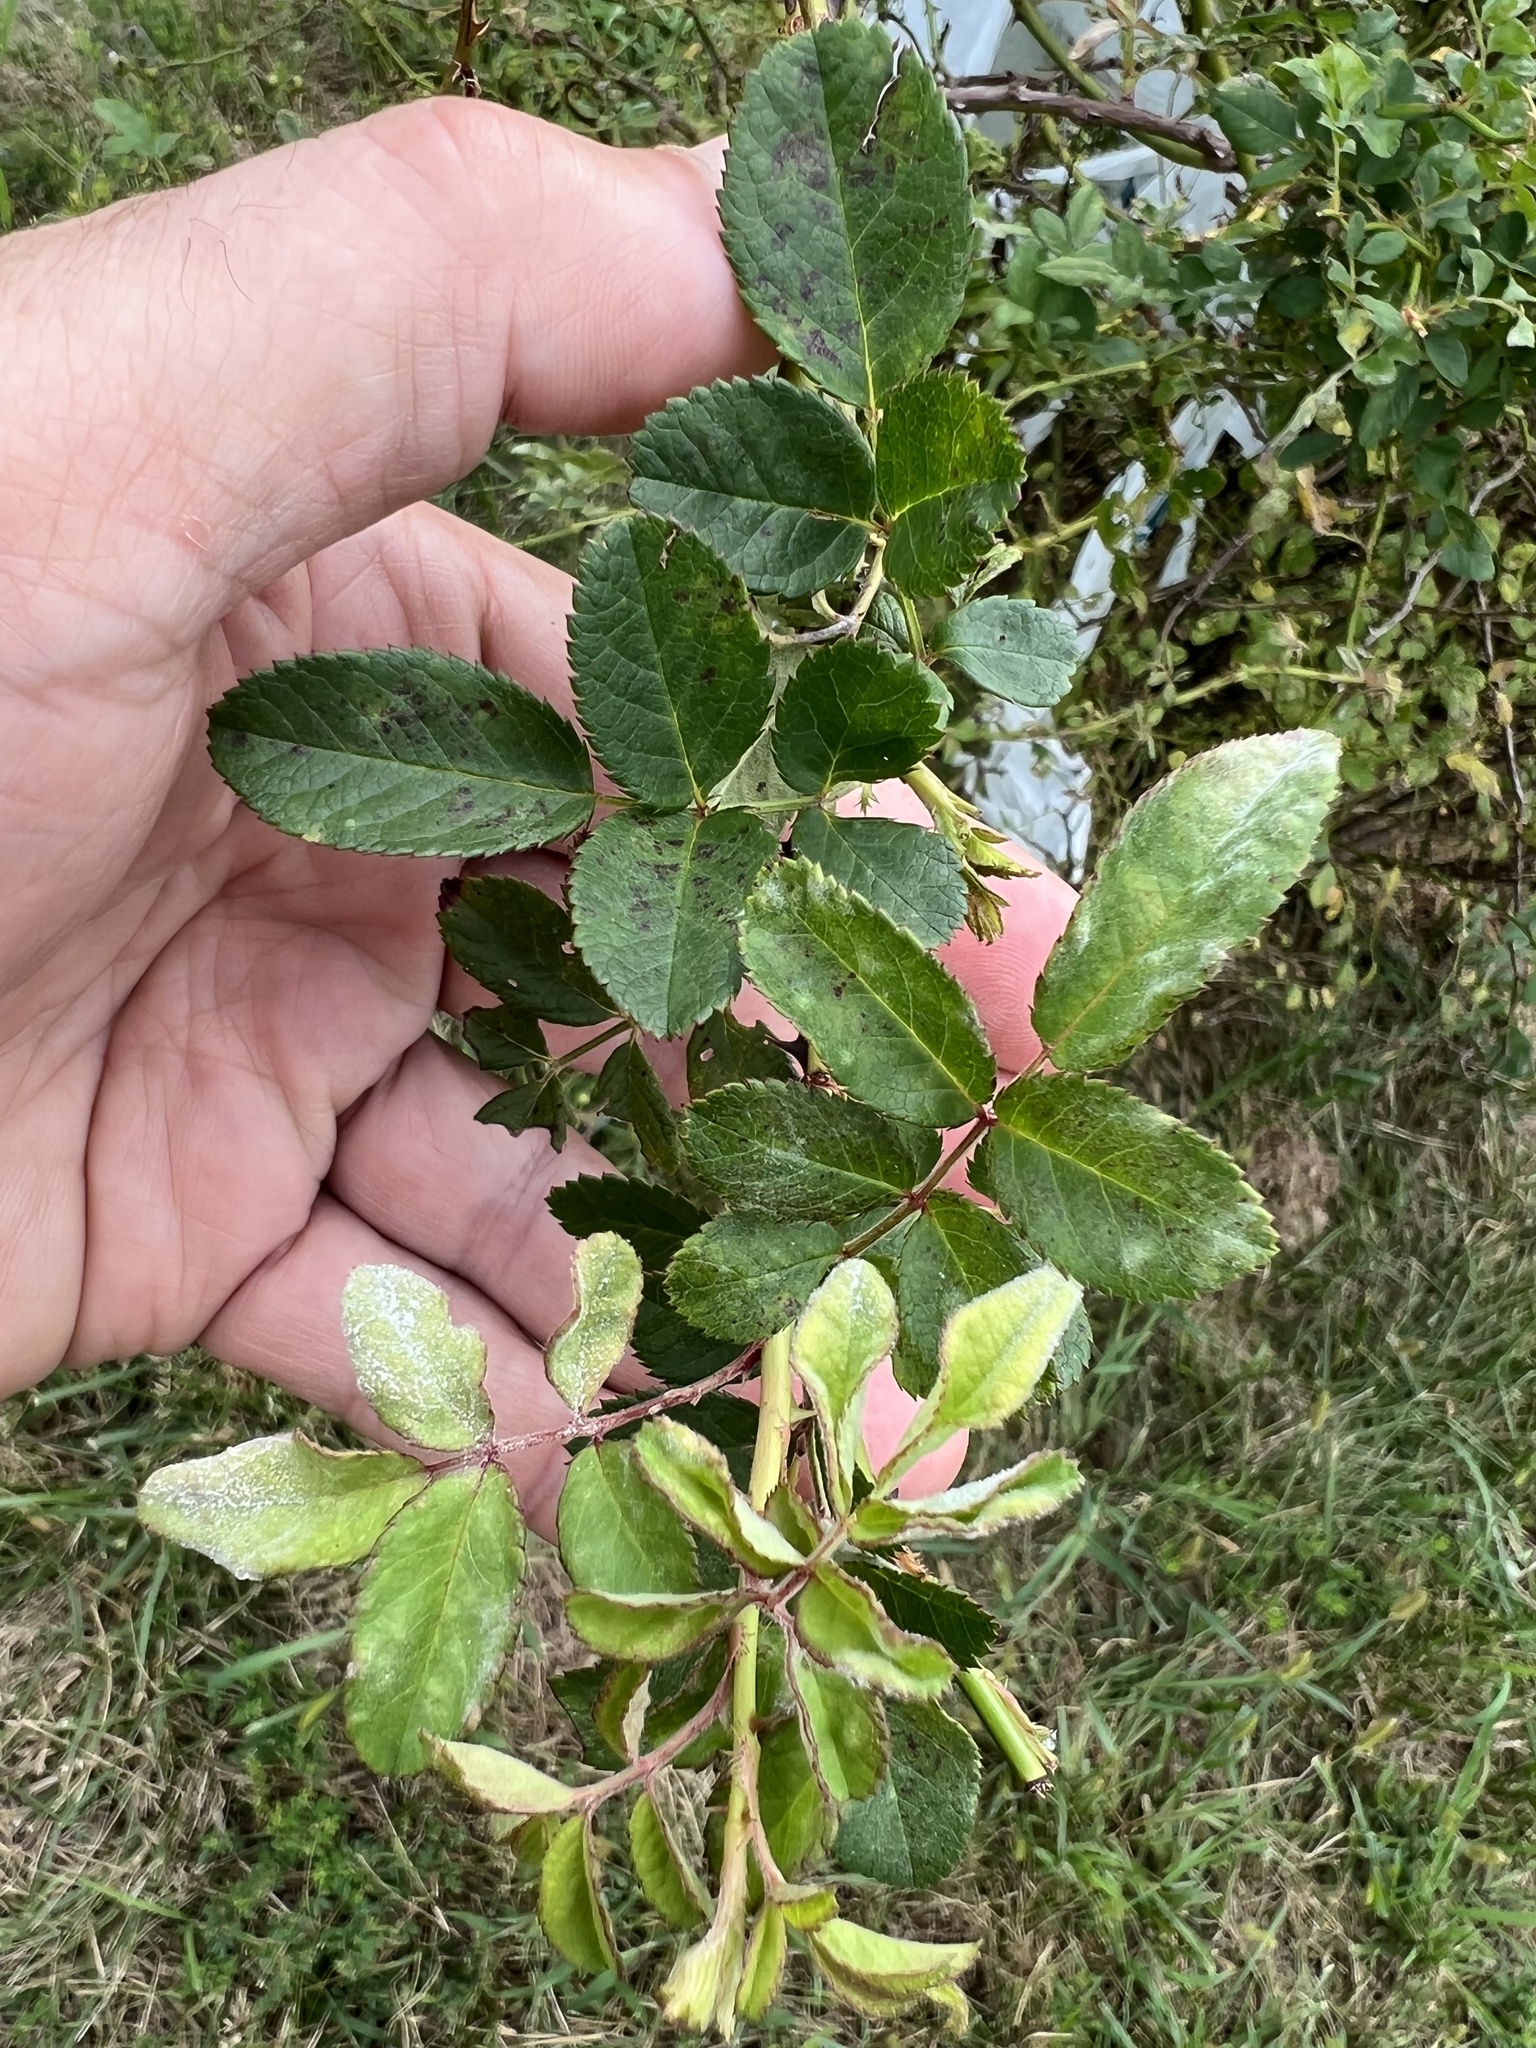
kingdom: Fungi
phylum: Ascomycota
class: Leotiomycetes
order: Helotiales
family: Erysiphaceae
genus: Podosphaera
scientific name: Podosphaera pannosa
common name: Rose mildew
